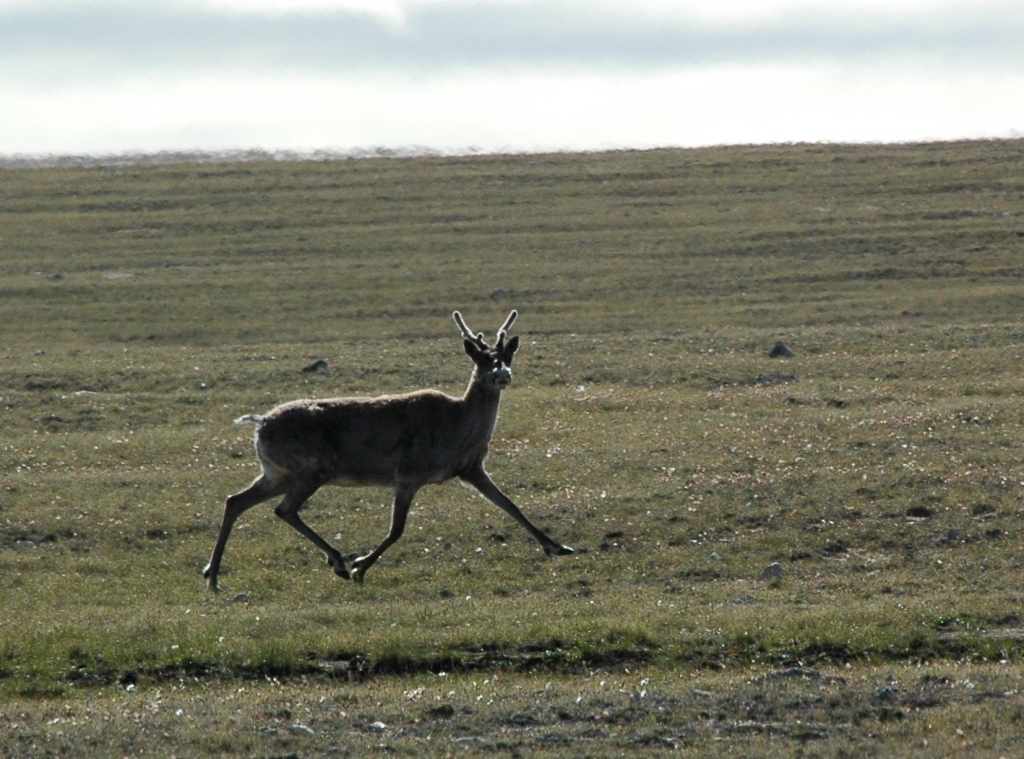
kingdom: Animalia
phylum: Chordata
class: Mammalia
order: Artiodactyla
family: Cervidae
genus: Rangifer
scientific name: Rangifer tarandus
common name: Reindeer
